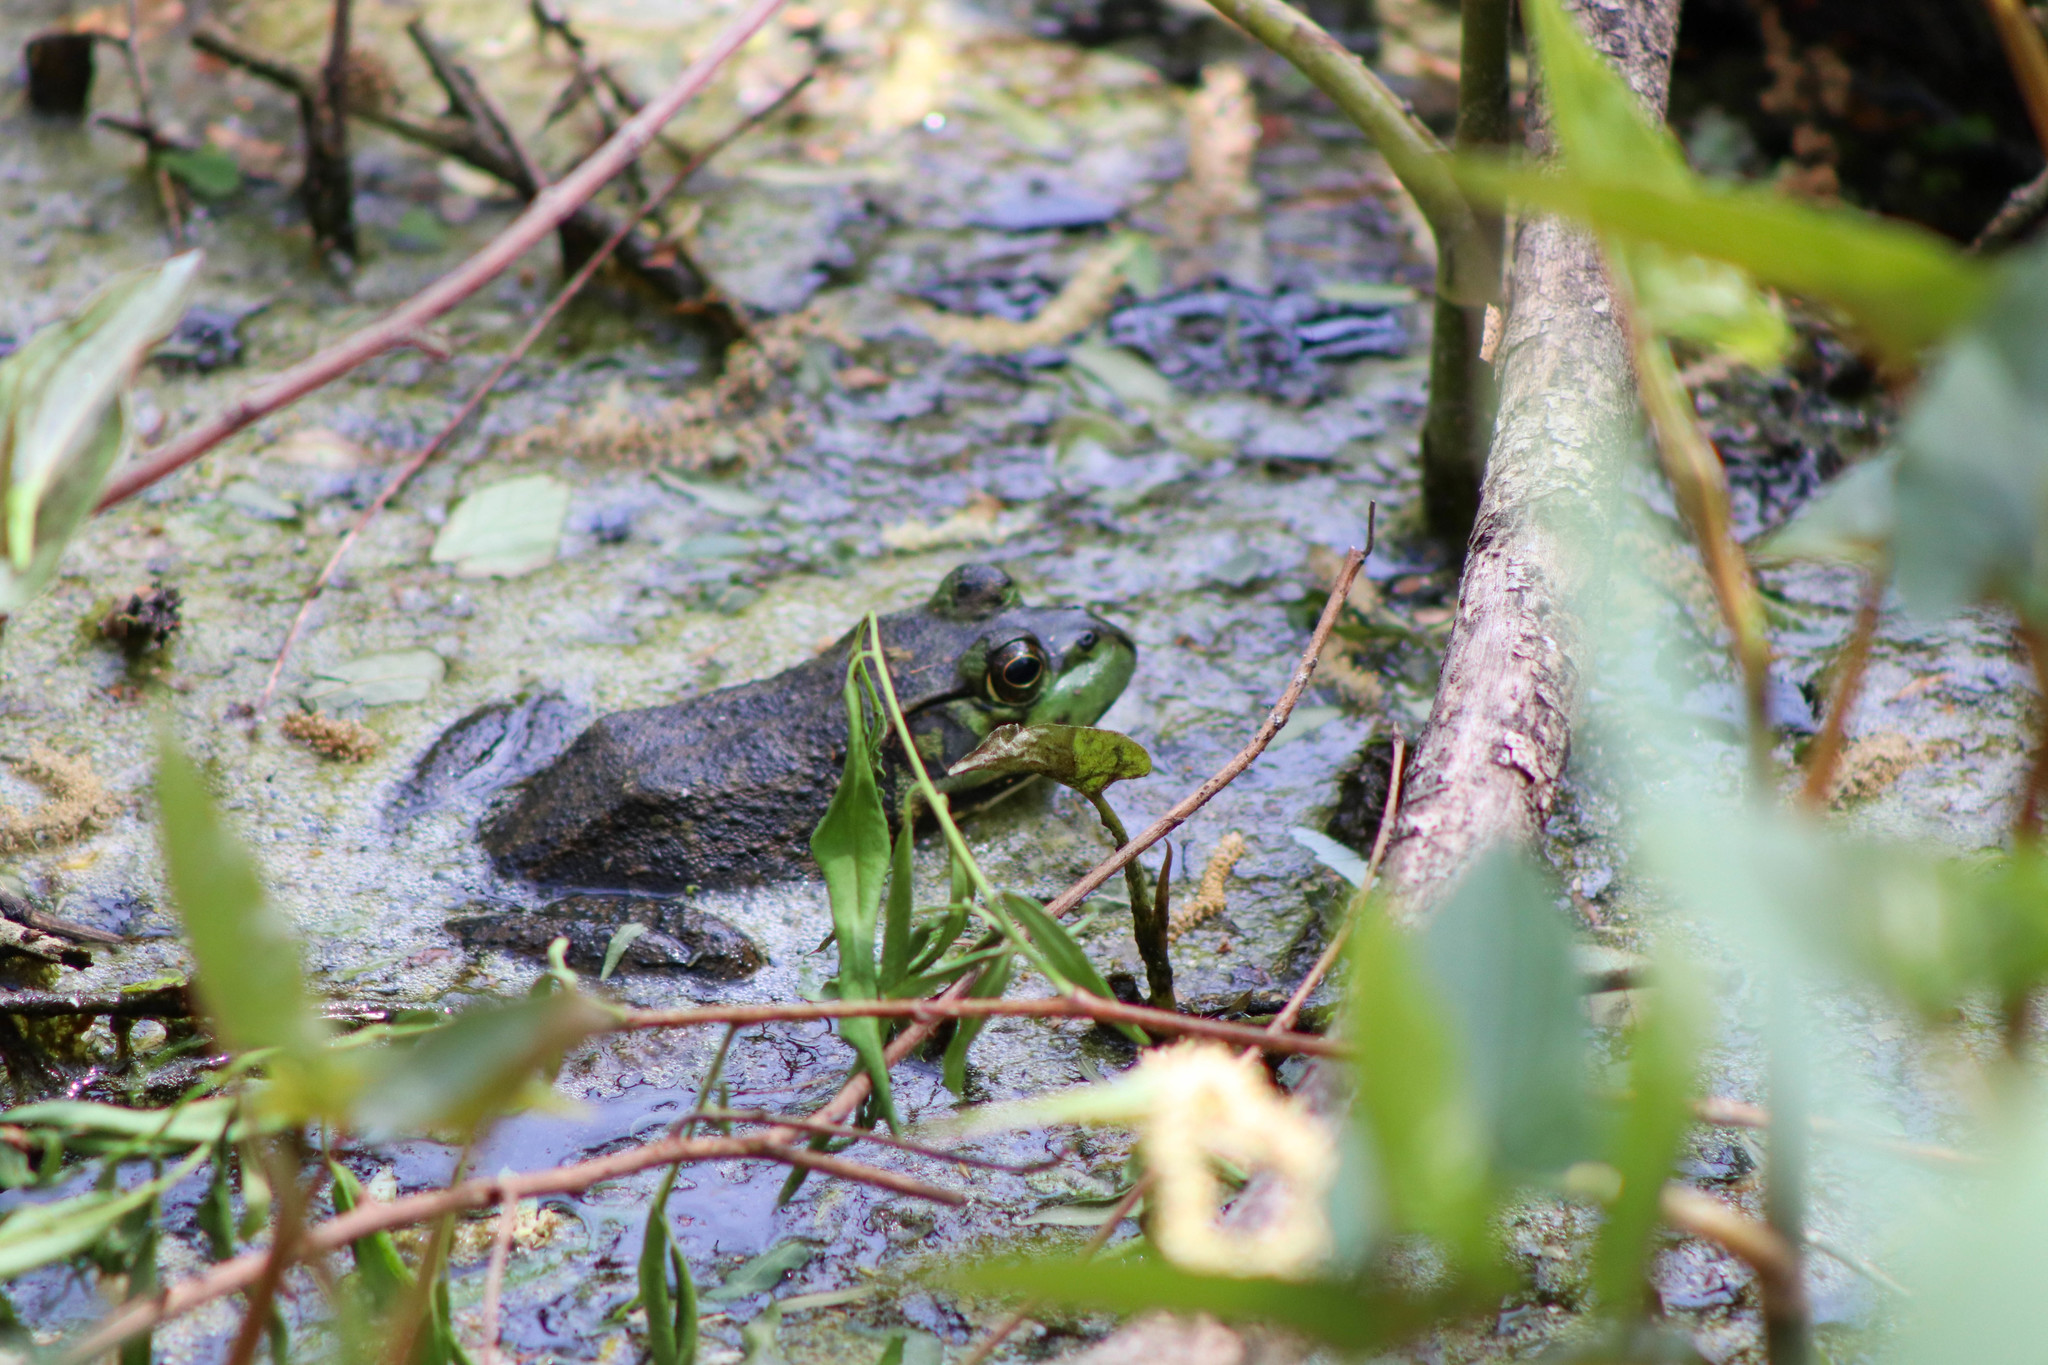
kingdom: Animalia
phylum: Chordata
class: Amphibia
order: Anura
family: Ranidae
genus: Lithobates
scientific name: Lithobates catesbeianus
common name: American bullfrog
